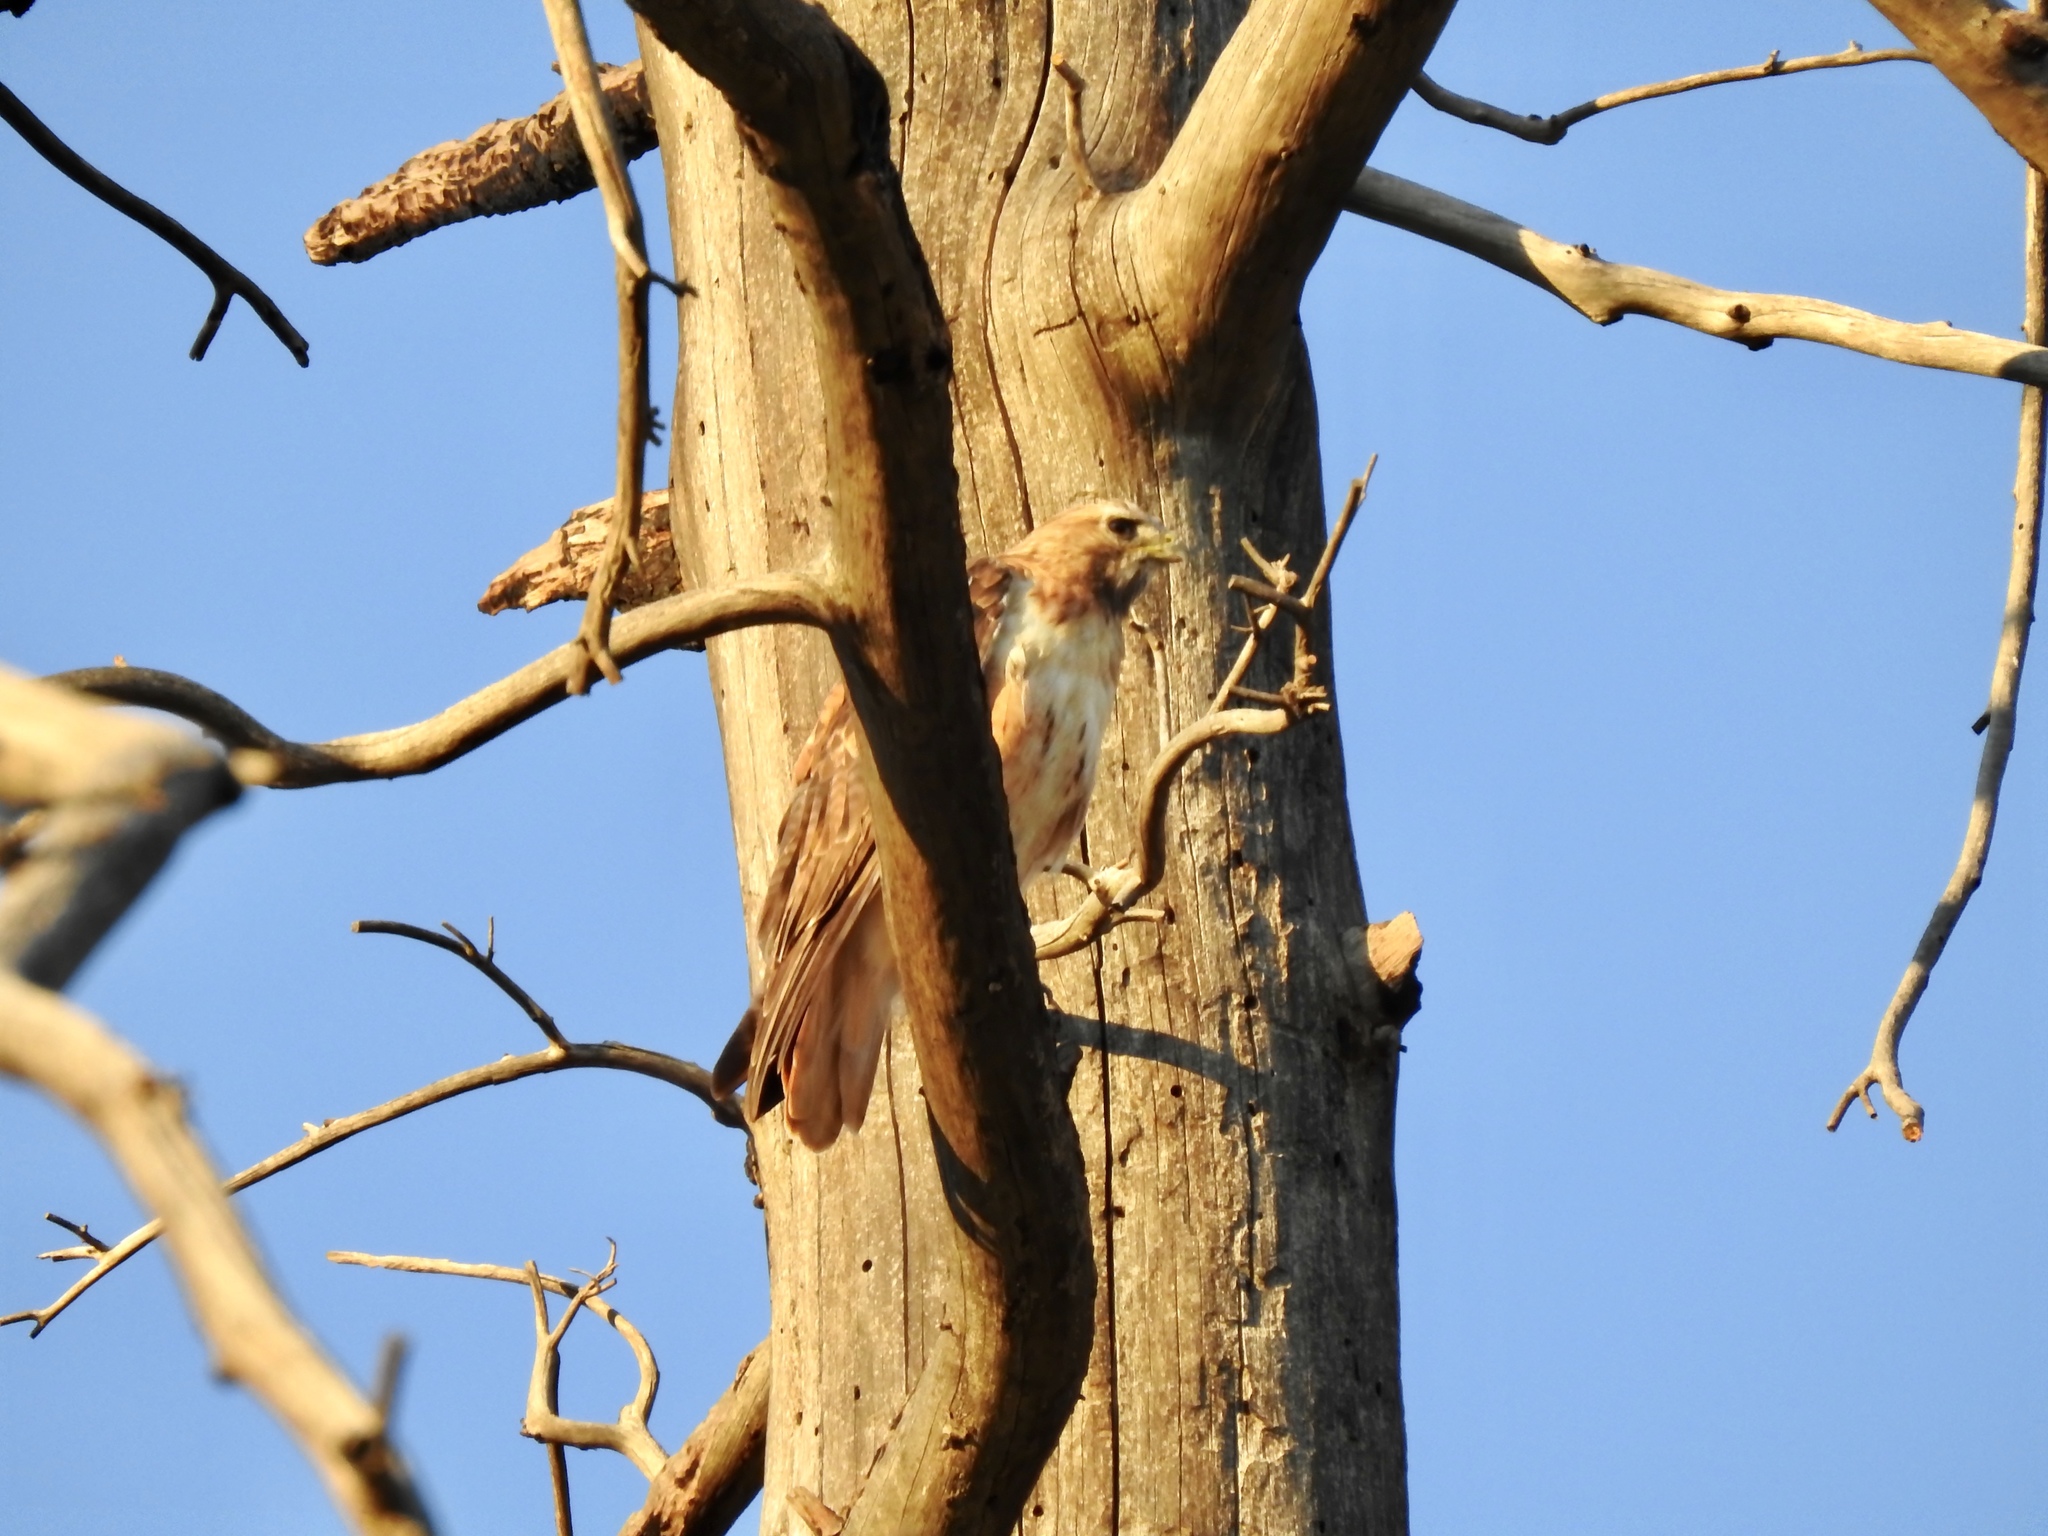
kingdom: Animalia
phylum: Chordata
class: Aves
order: Accipitriformes
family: Accipitridae
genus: Buteo
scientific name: Buteo jamaicensis
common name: Red-tailed hawk
